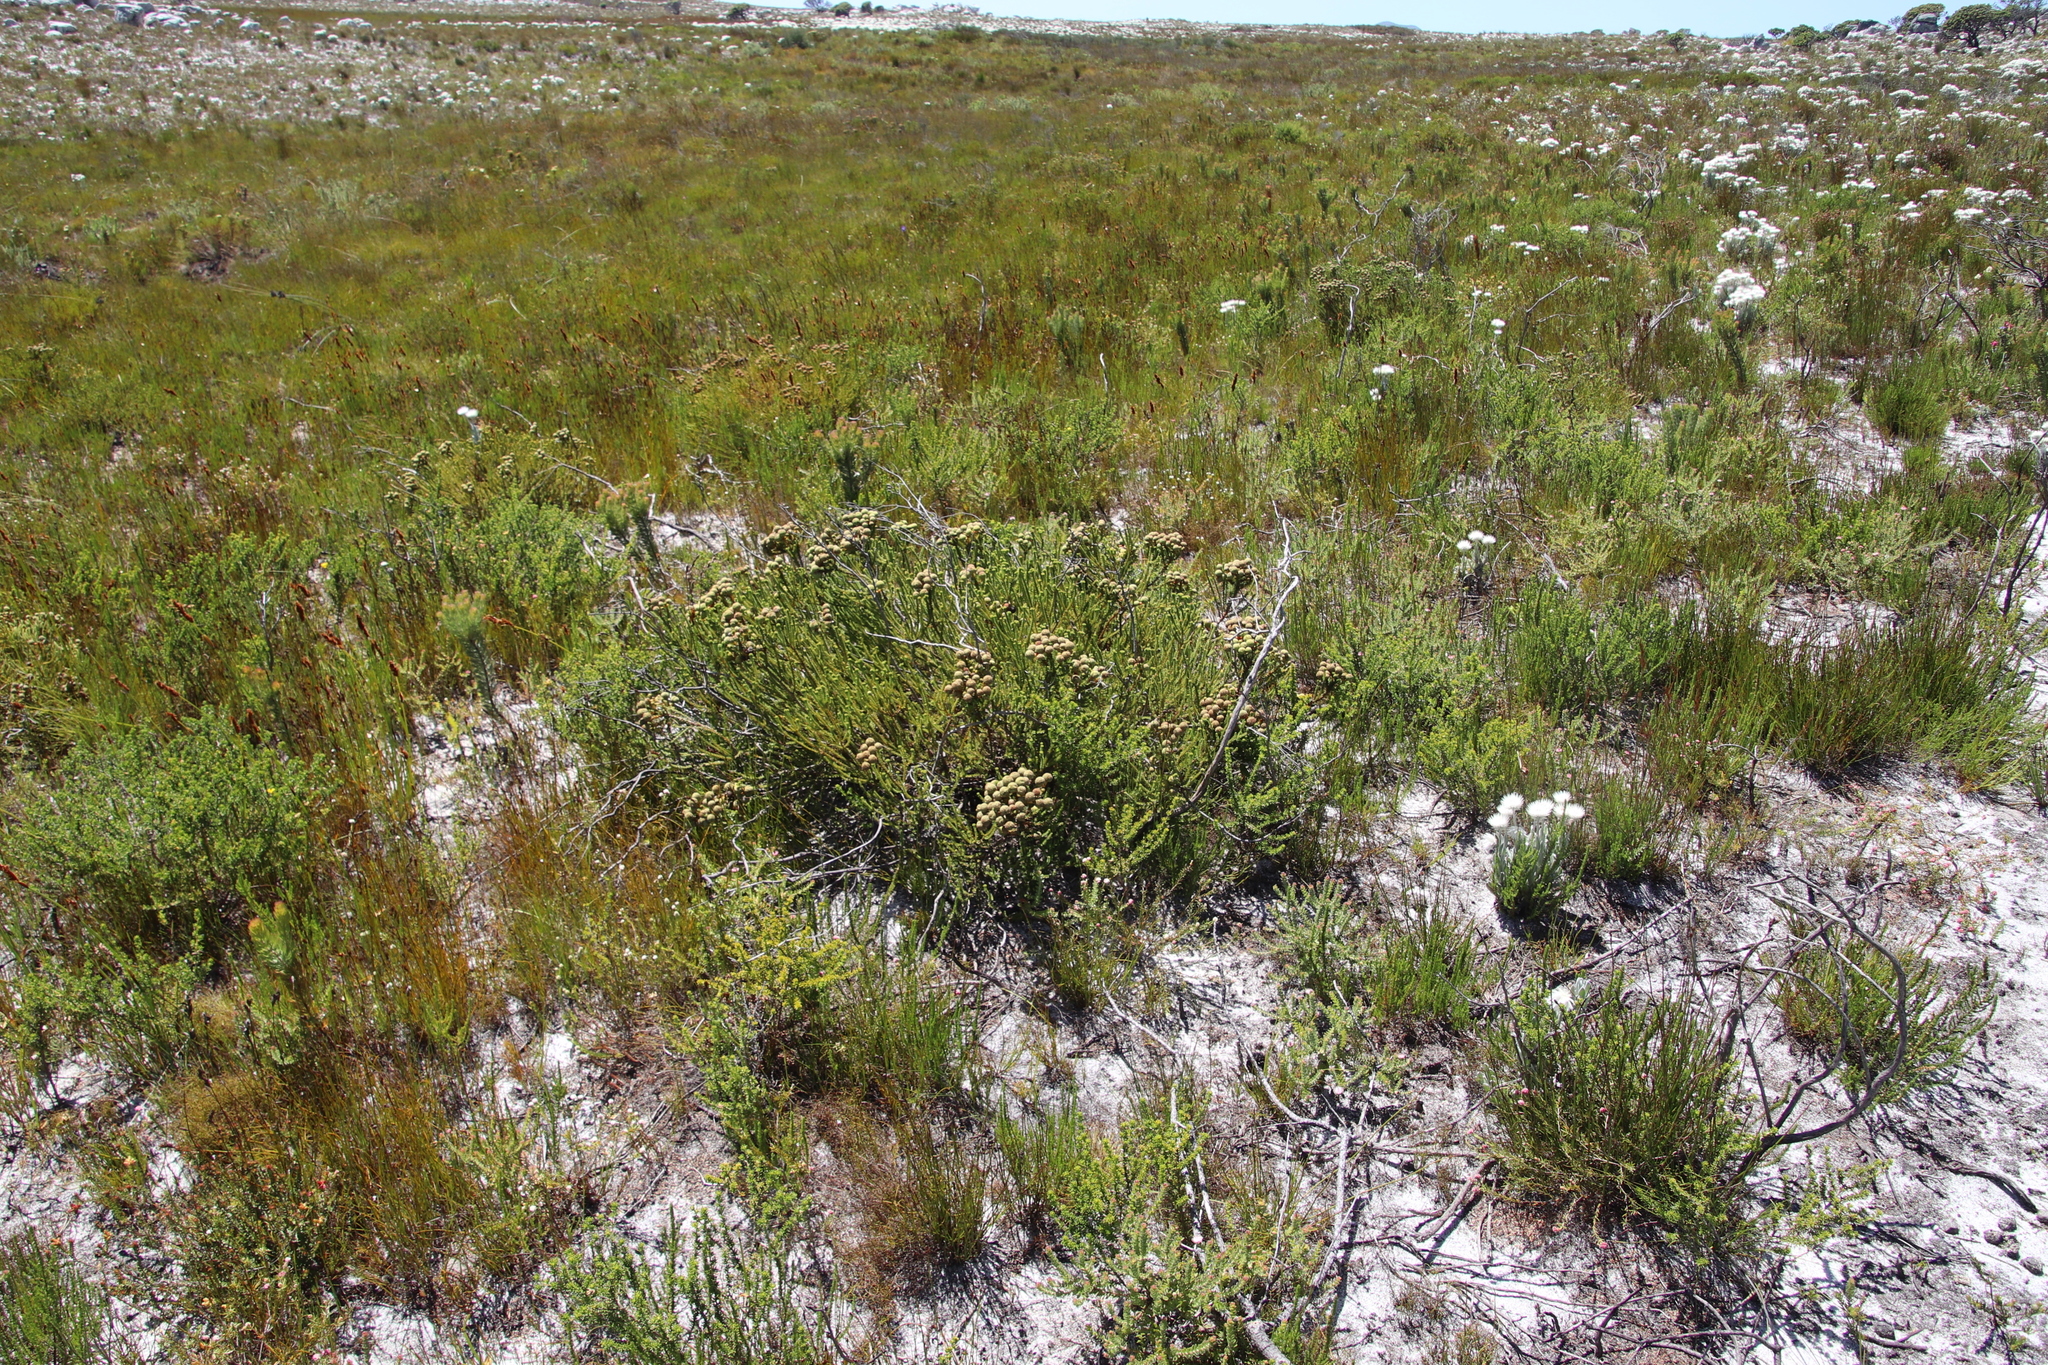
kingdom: Plantae
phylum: Tracheophyta
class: Magnoliopsida
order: Bruniales
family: Bruniaceae
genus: Berzelia
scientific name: Berzelia abrotanoides
